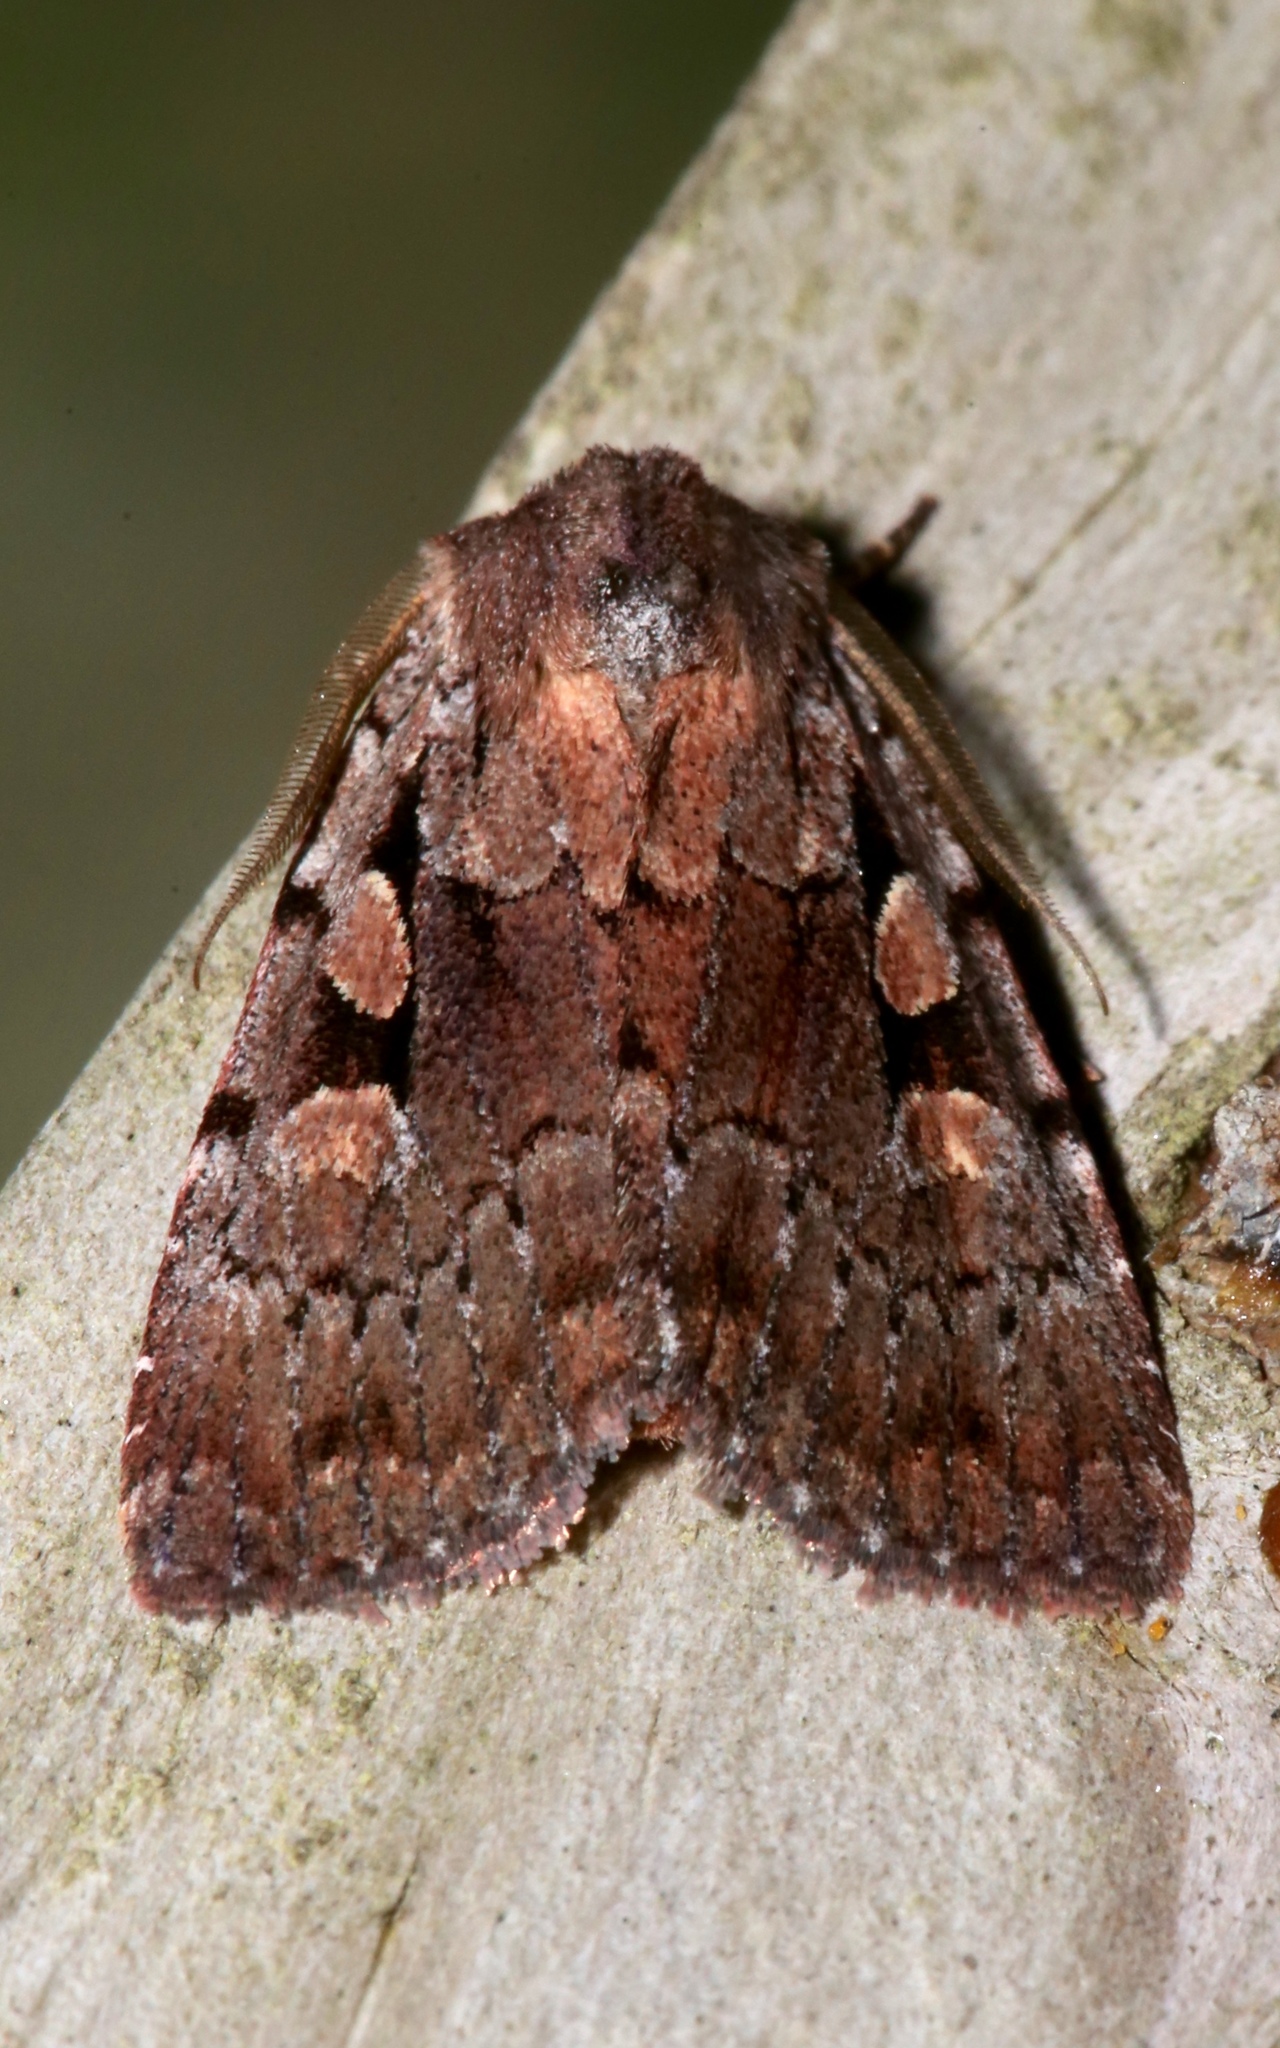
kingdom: Animalia
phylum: Arthropoda
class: Insecta
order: Lepidoptera
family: Noctuidae
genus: Xestia
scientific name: Xestia praevia
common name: Praevia dart
